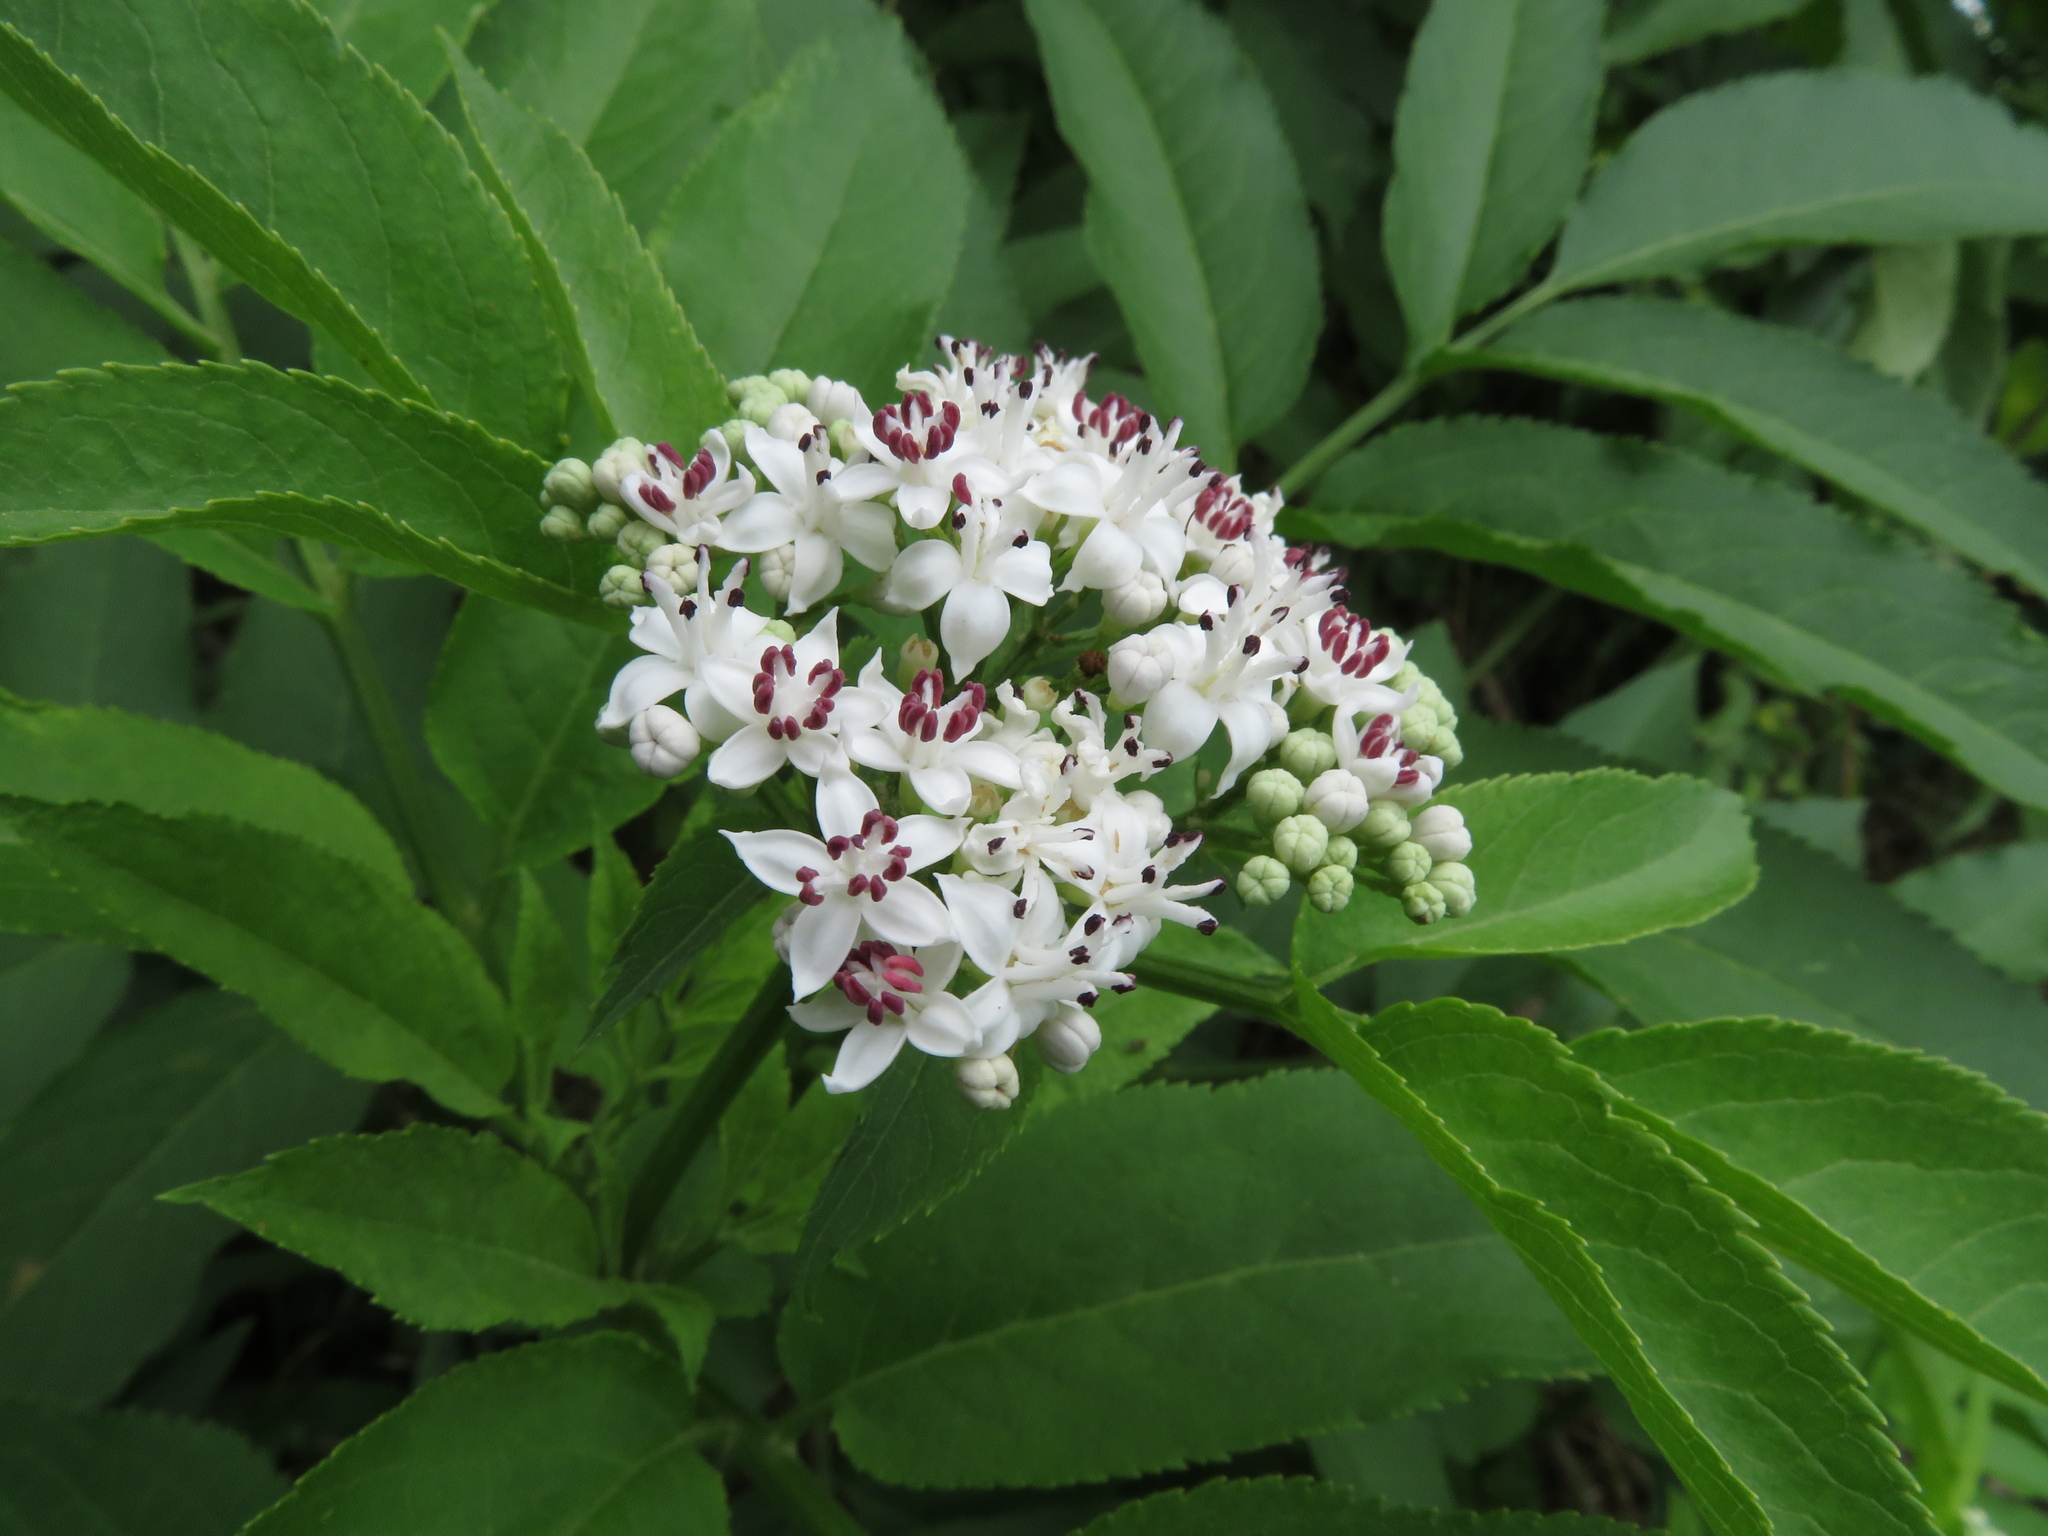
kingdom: Plantae
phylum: Tracheophyta
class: Magnoliopsida
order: Dipsacales
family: Viburnaceae
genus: Sambucus
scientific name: Sambucus ebulus
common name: Dwarf elder
